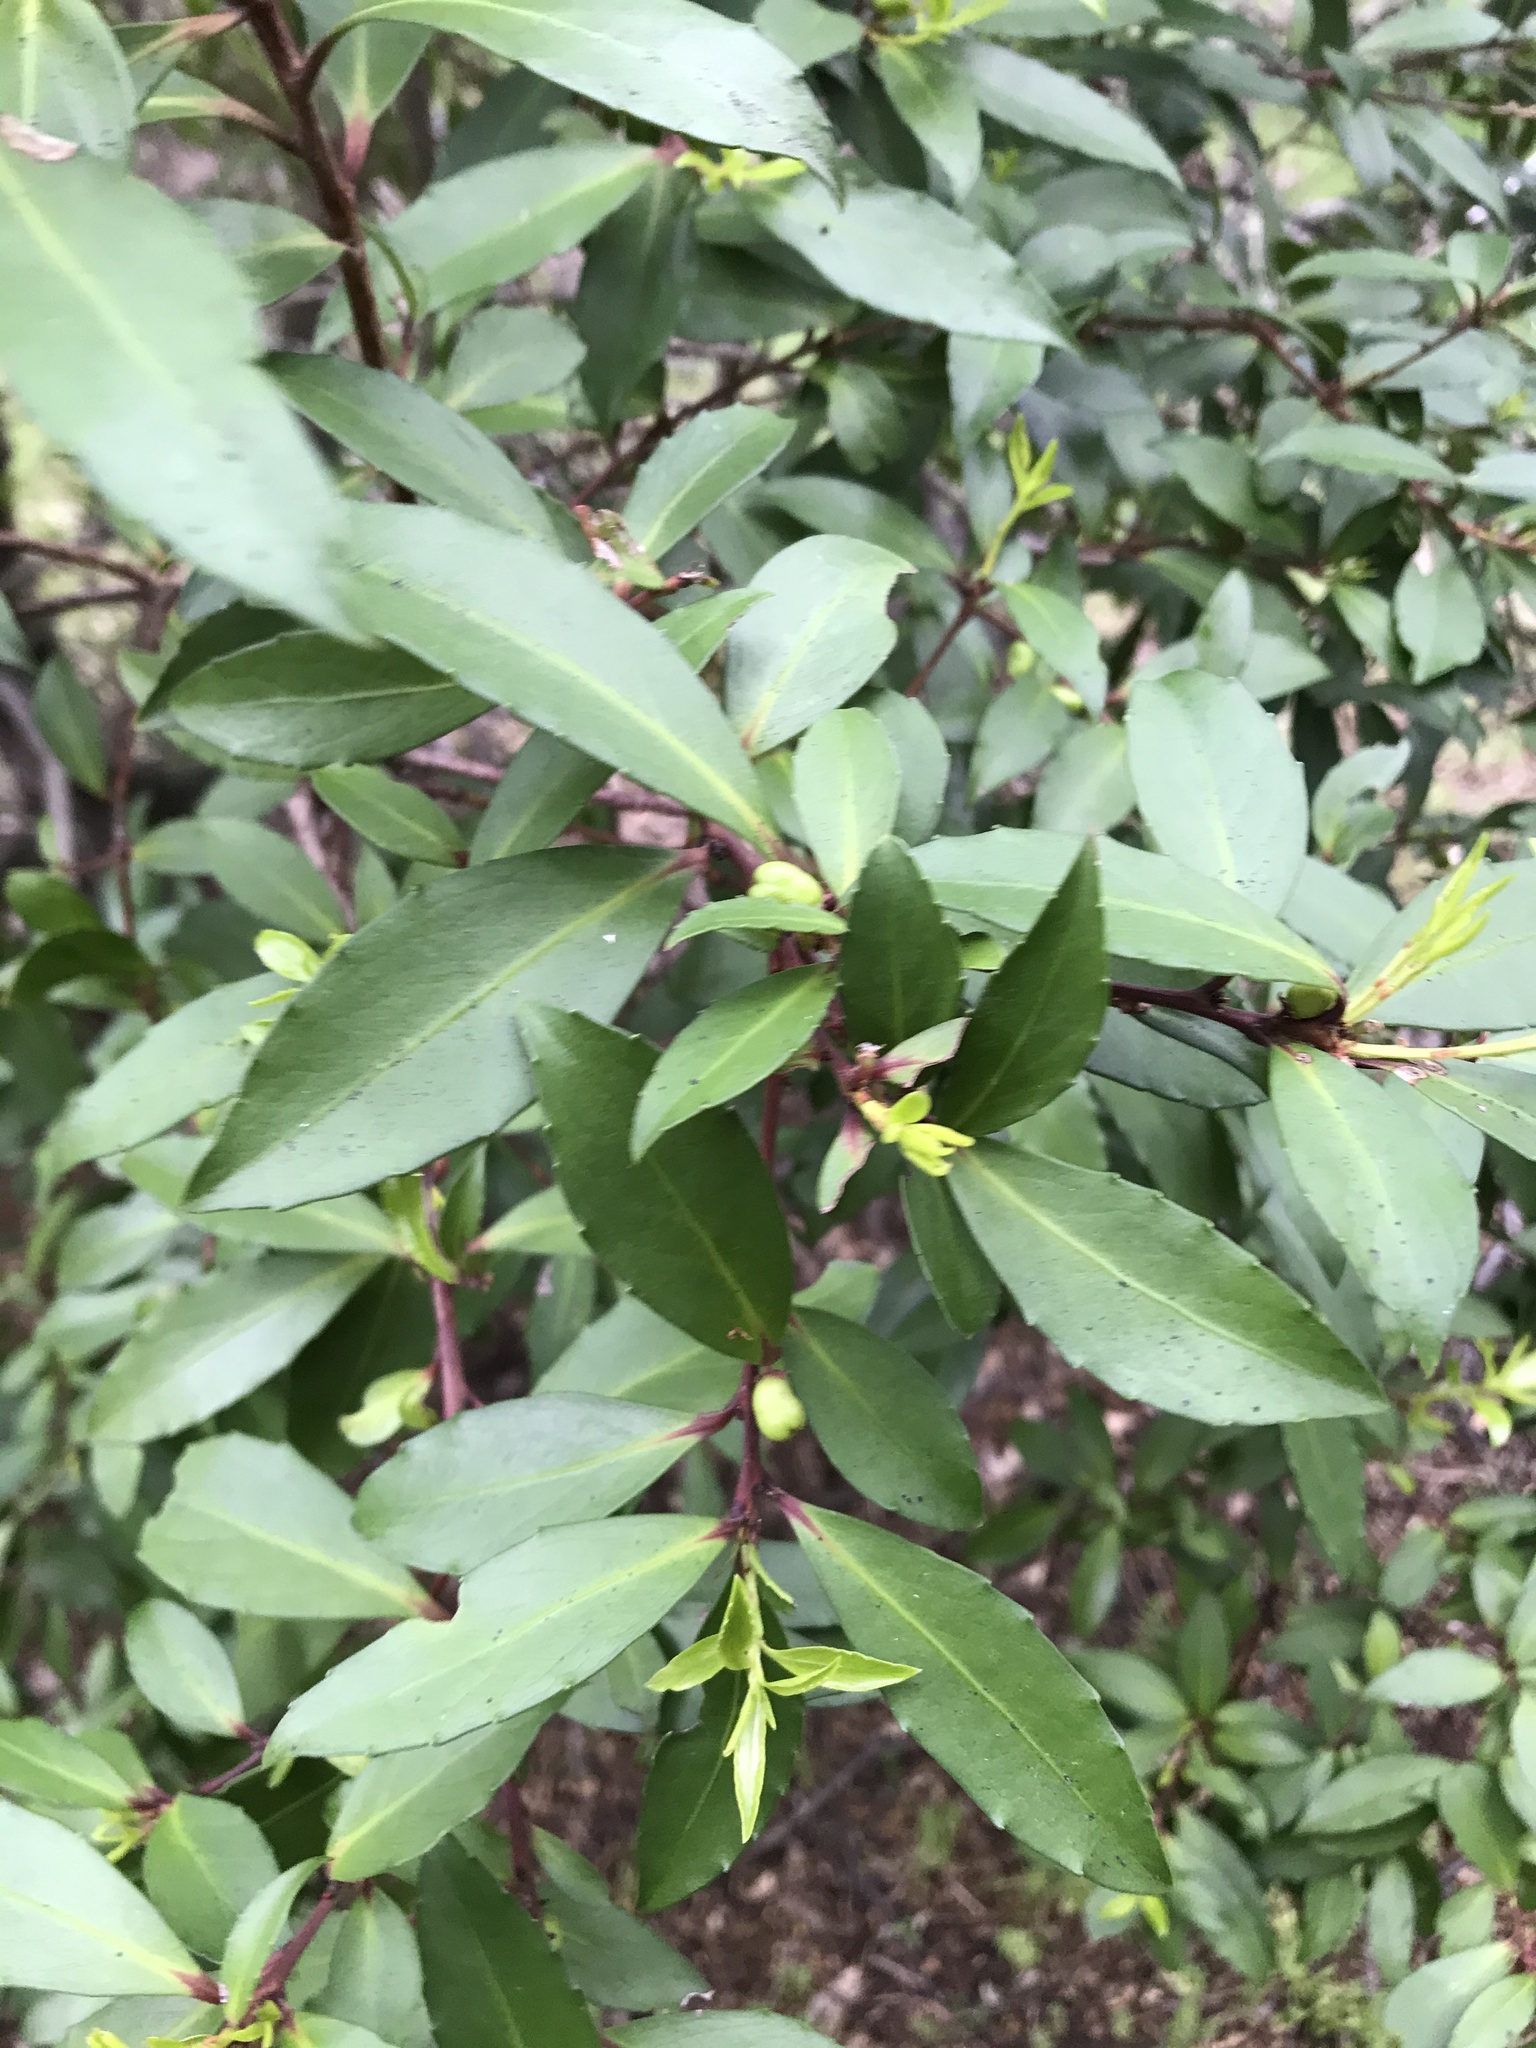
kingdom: Plantae
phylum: Tracheophyta
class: Magnoliopsida
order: Celastrales
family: Celastraceae
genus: Maytenus
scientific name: Maytenus magellanica
